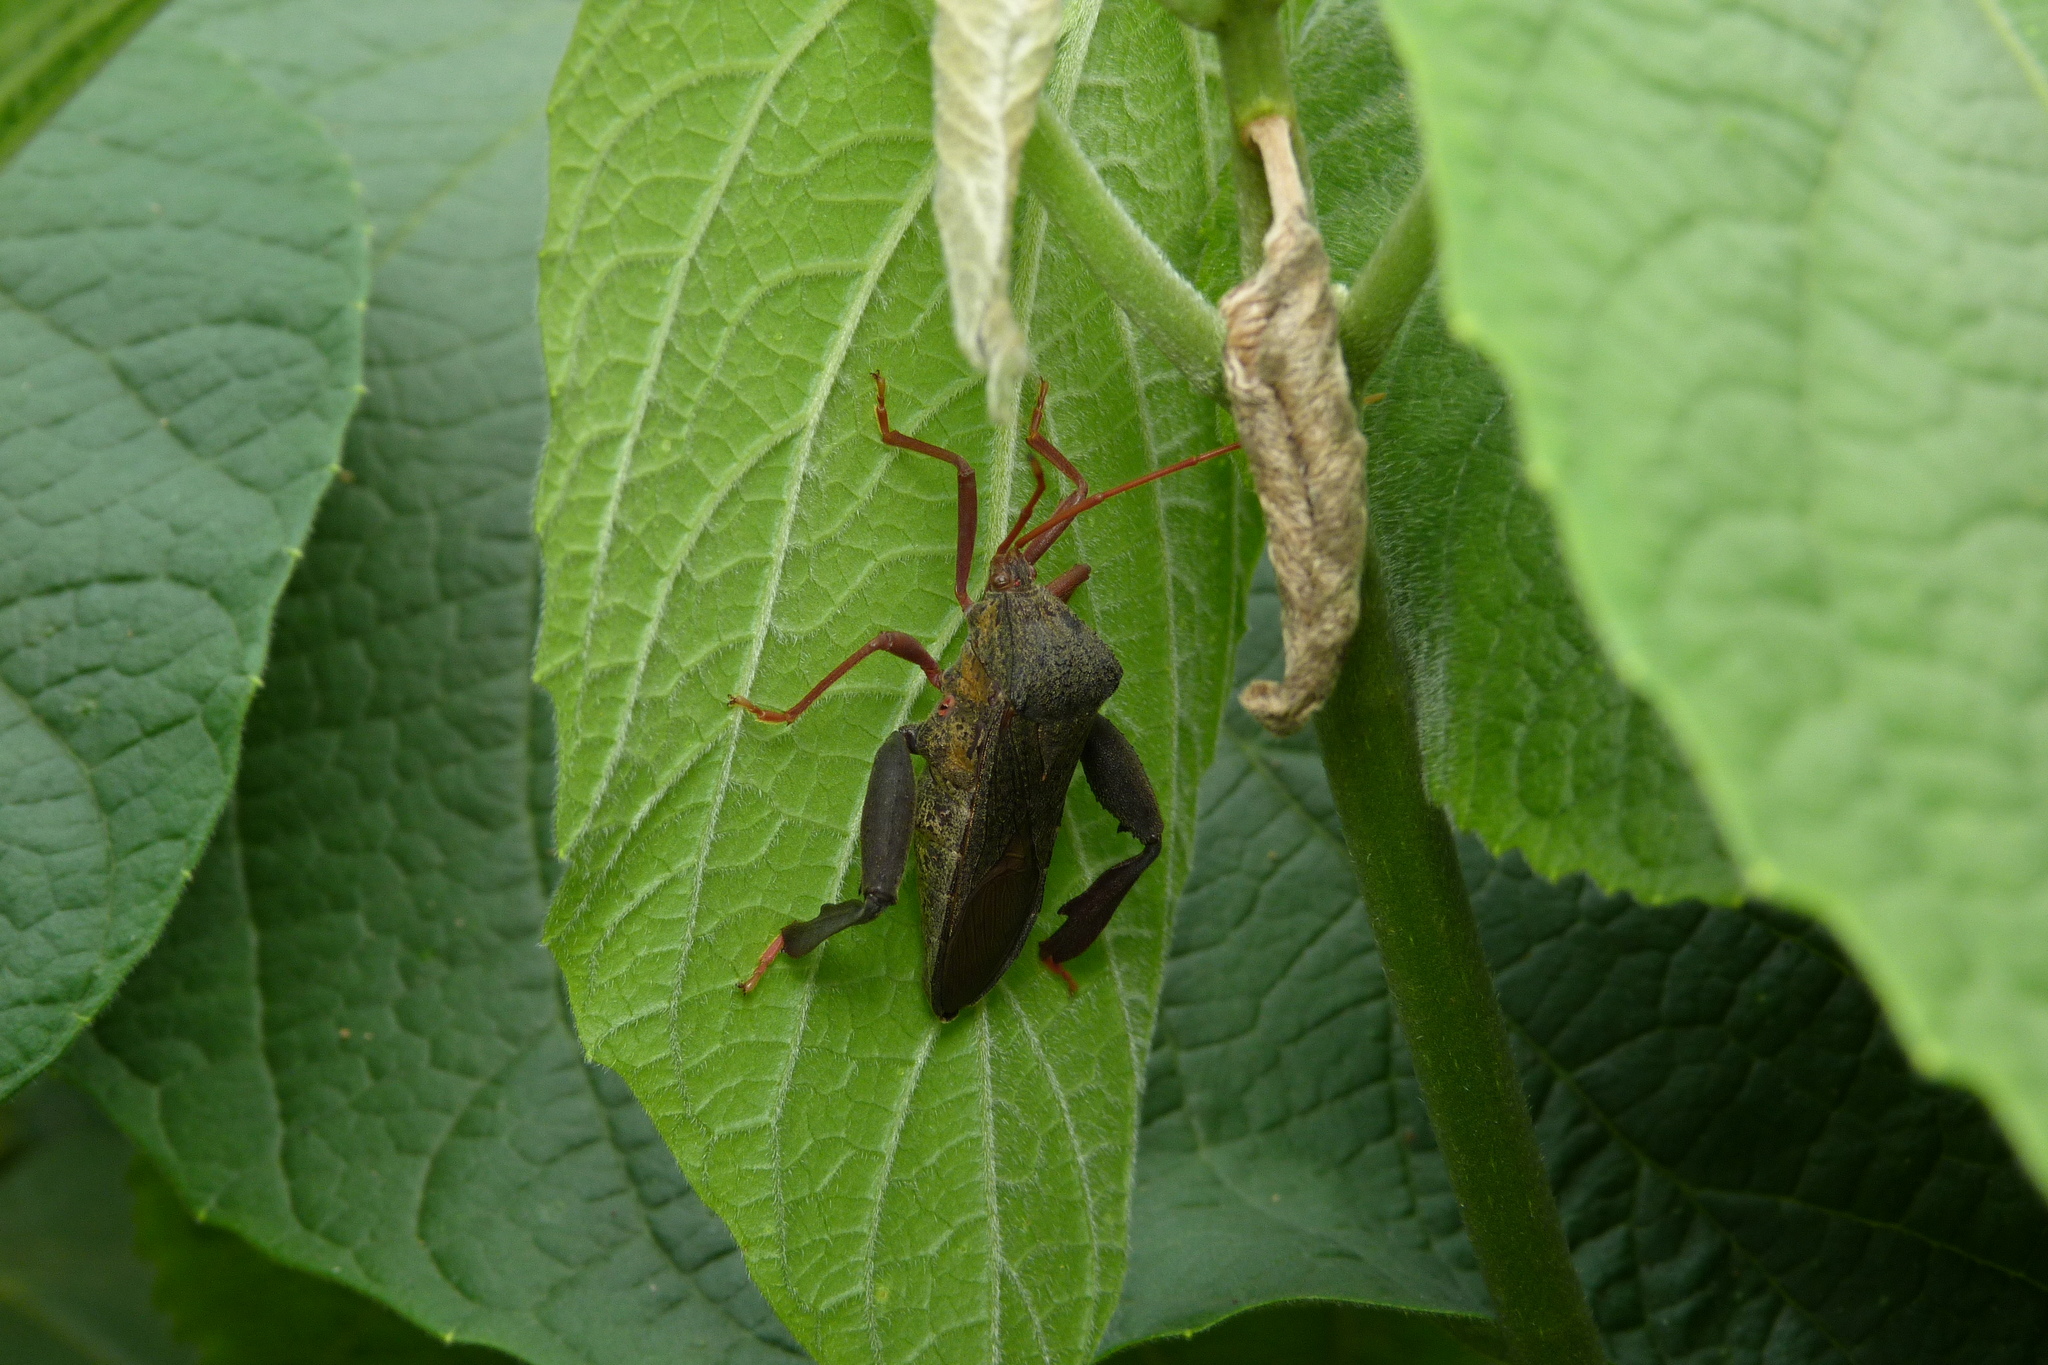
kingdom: Animalia
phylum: Arthropoda
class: Insecta
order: Hemiptera
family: Coreidae
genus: Pternistria
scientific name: Pternistria bispina
